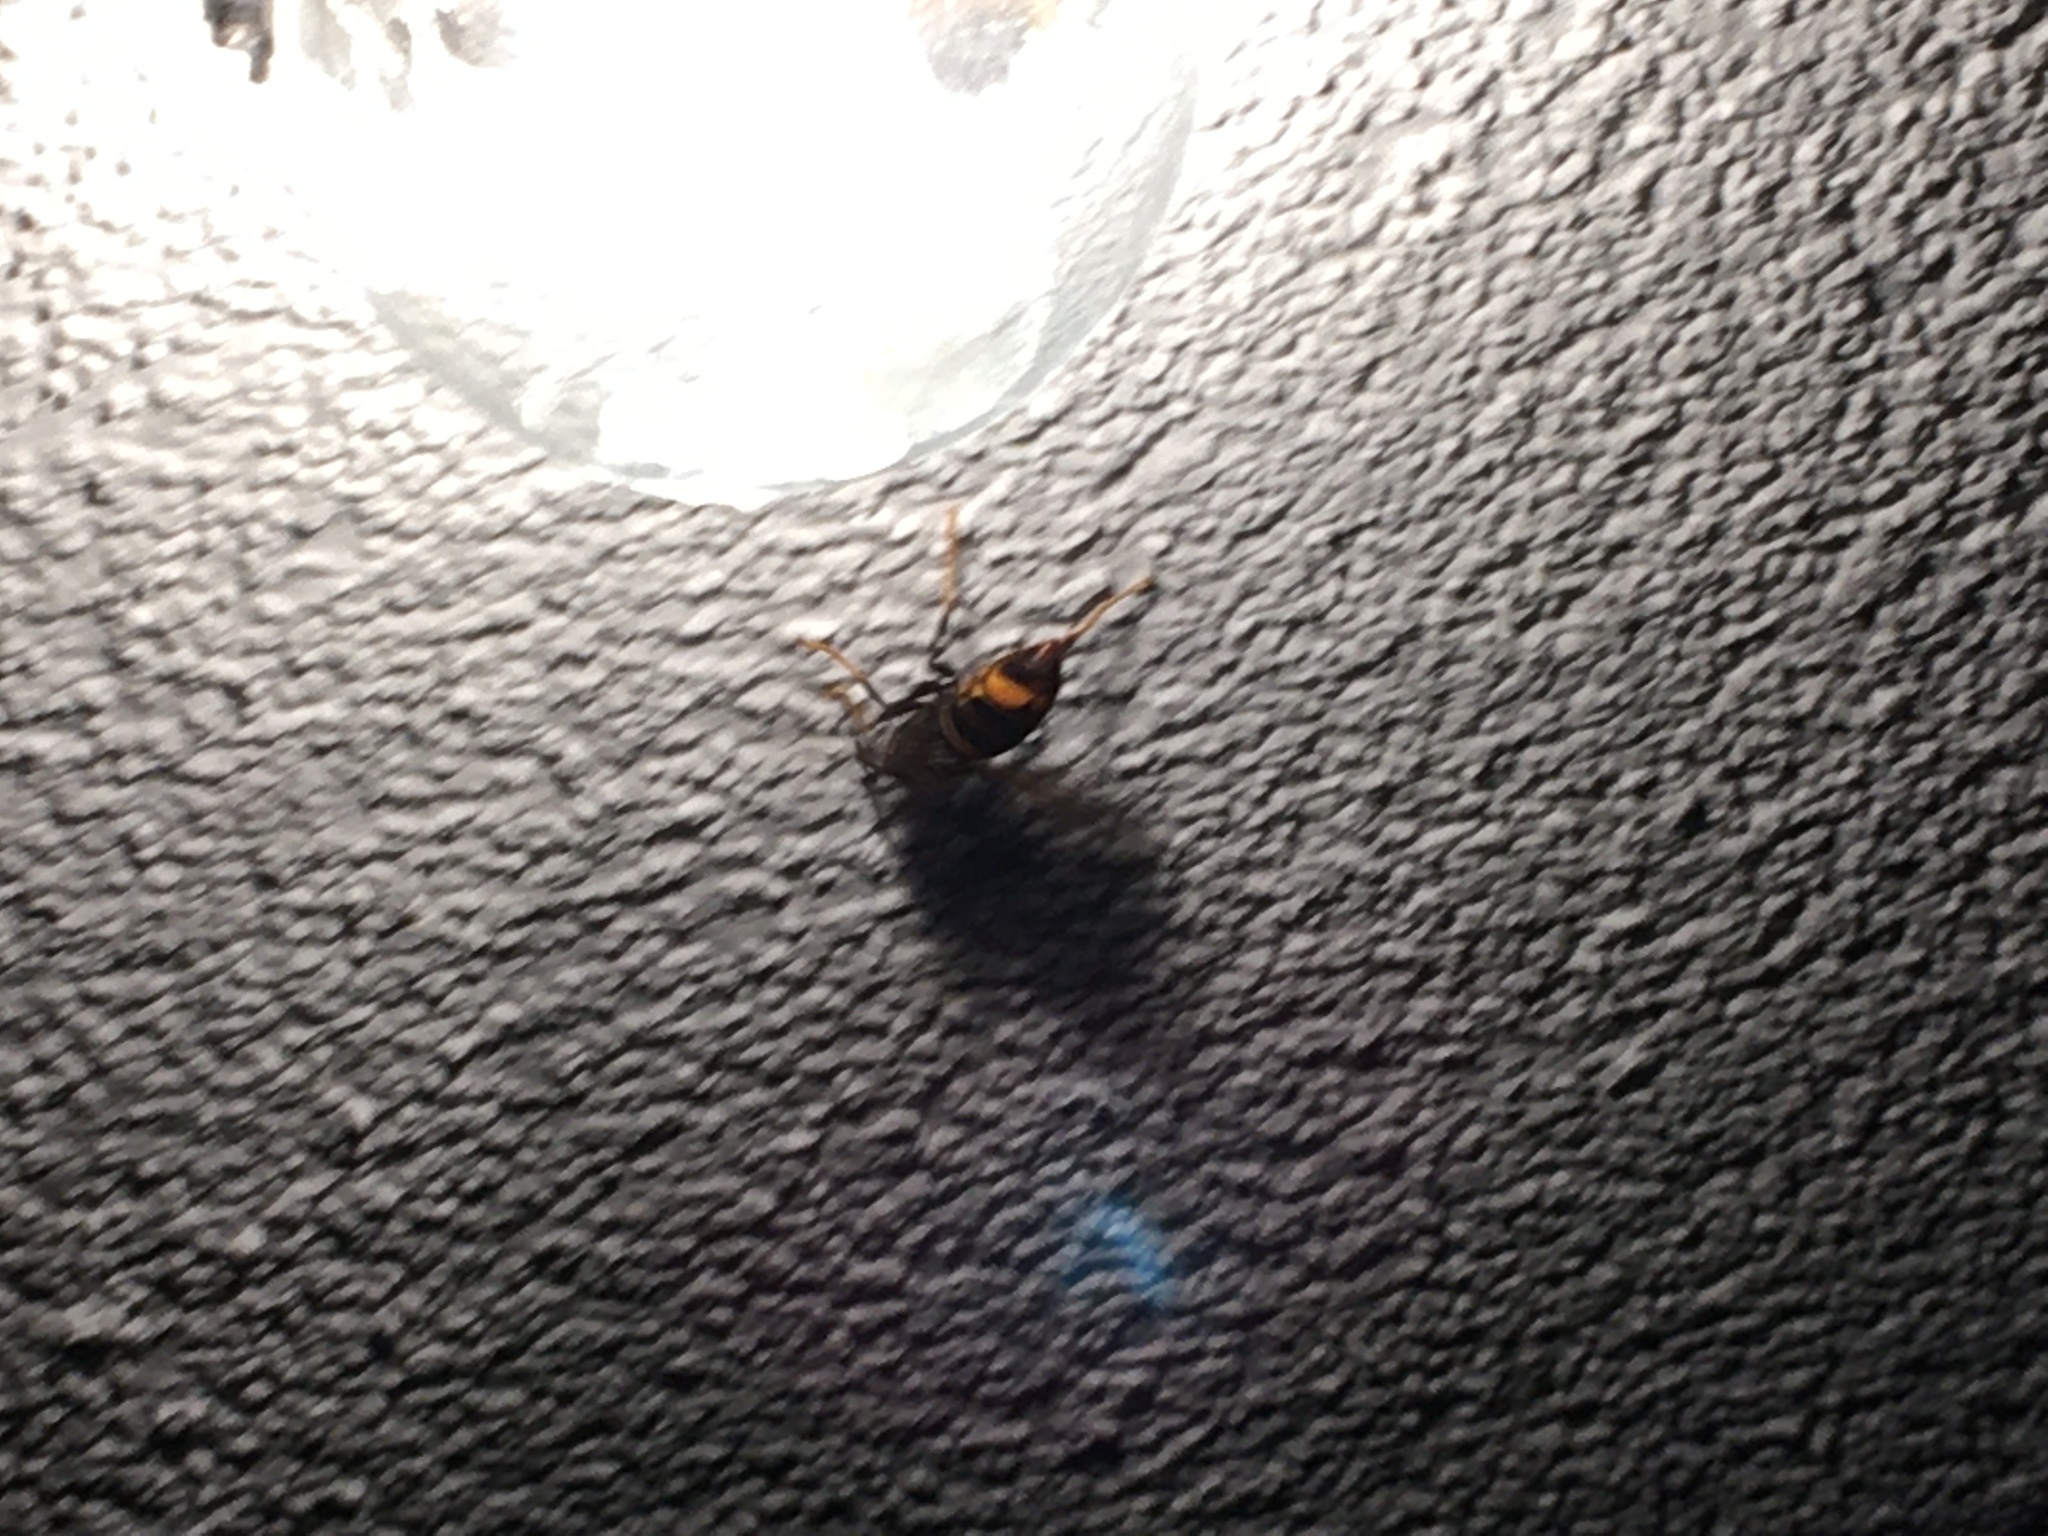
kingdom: Animalia
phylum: Arthropoda
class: Insecta
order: Hymenoptera
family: Vespidae
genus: Vespa
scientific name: Vespa velutina
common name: Asian hornet
